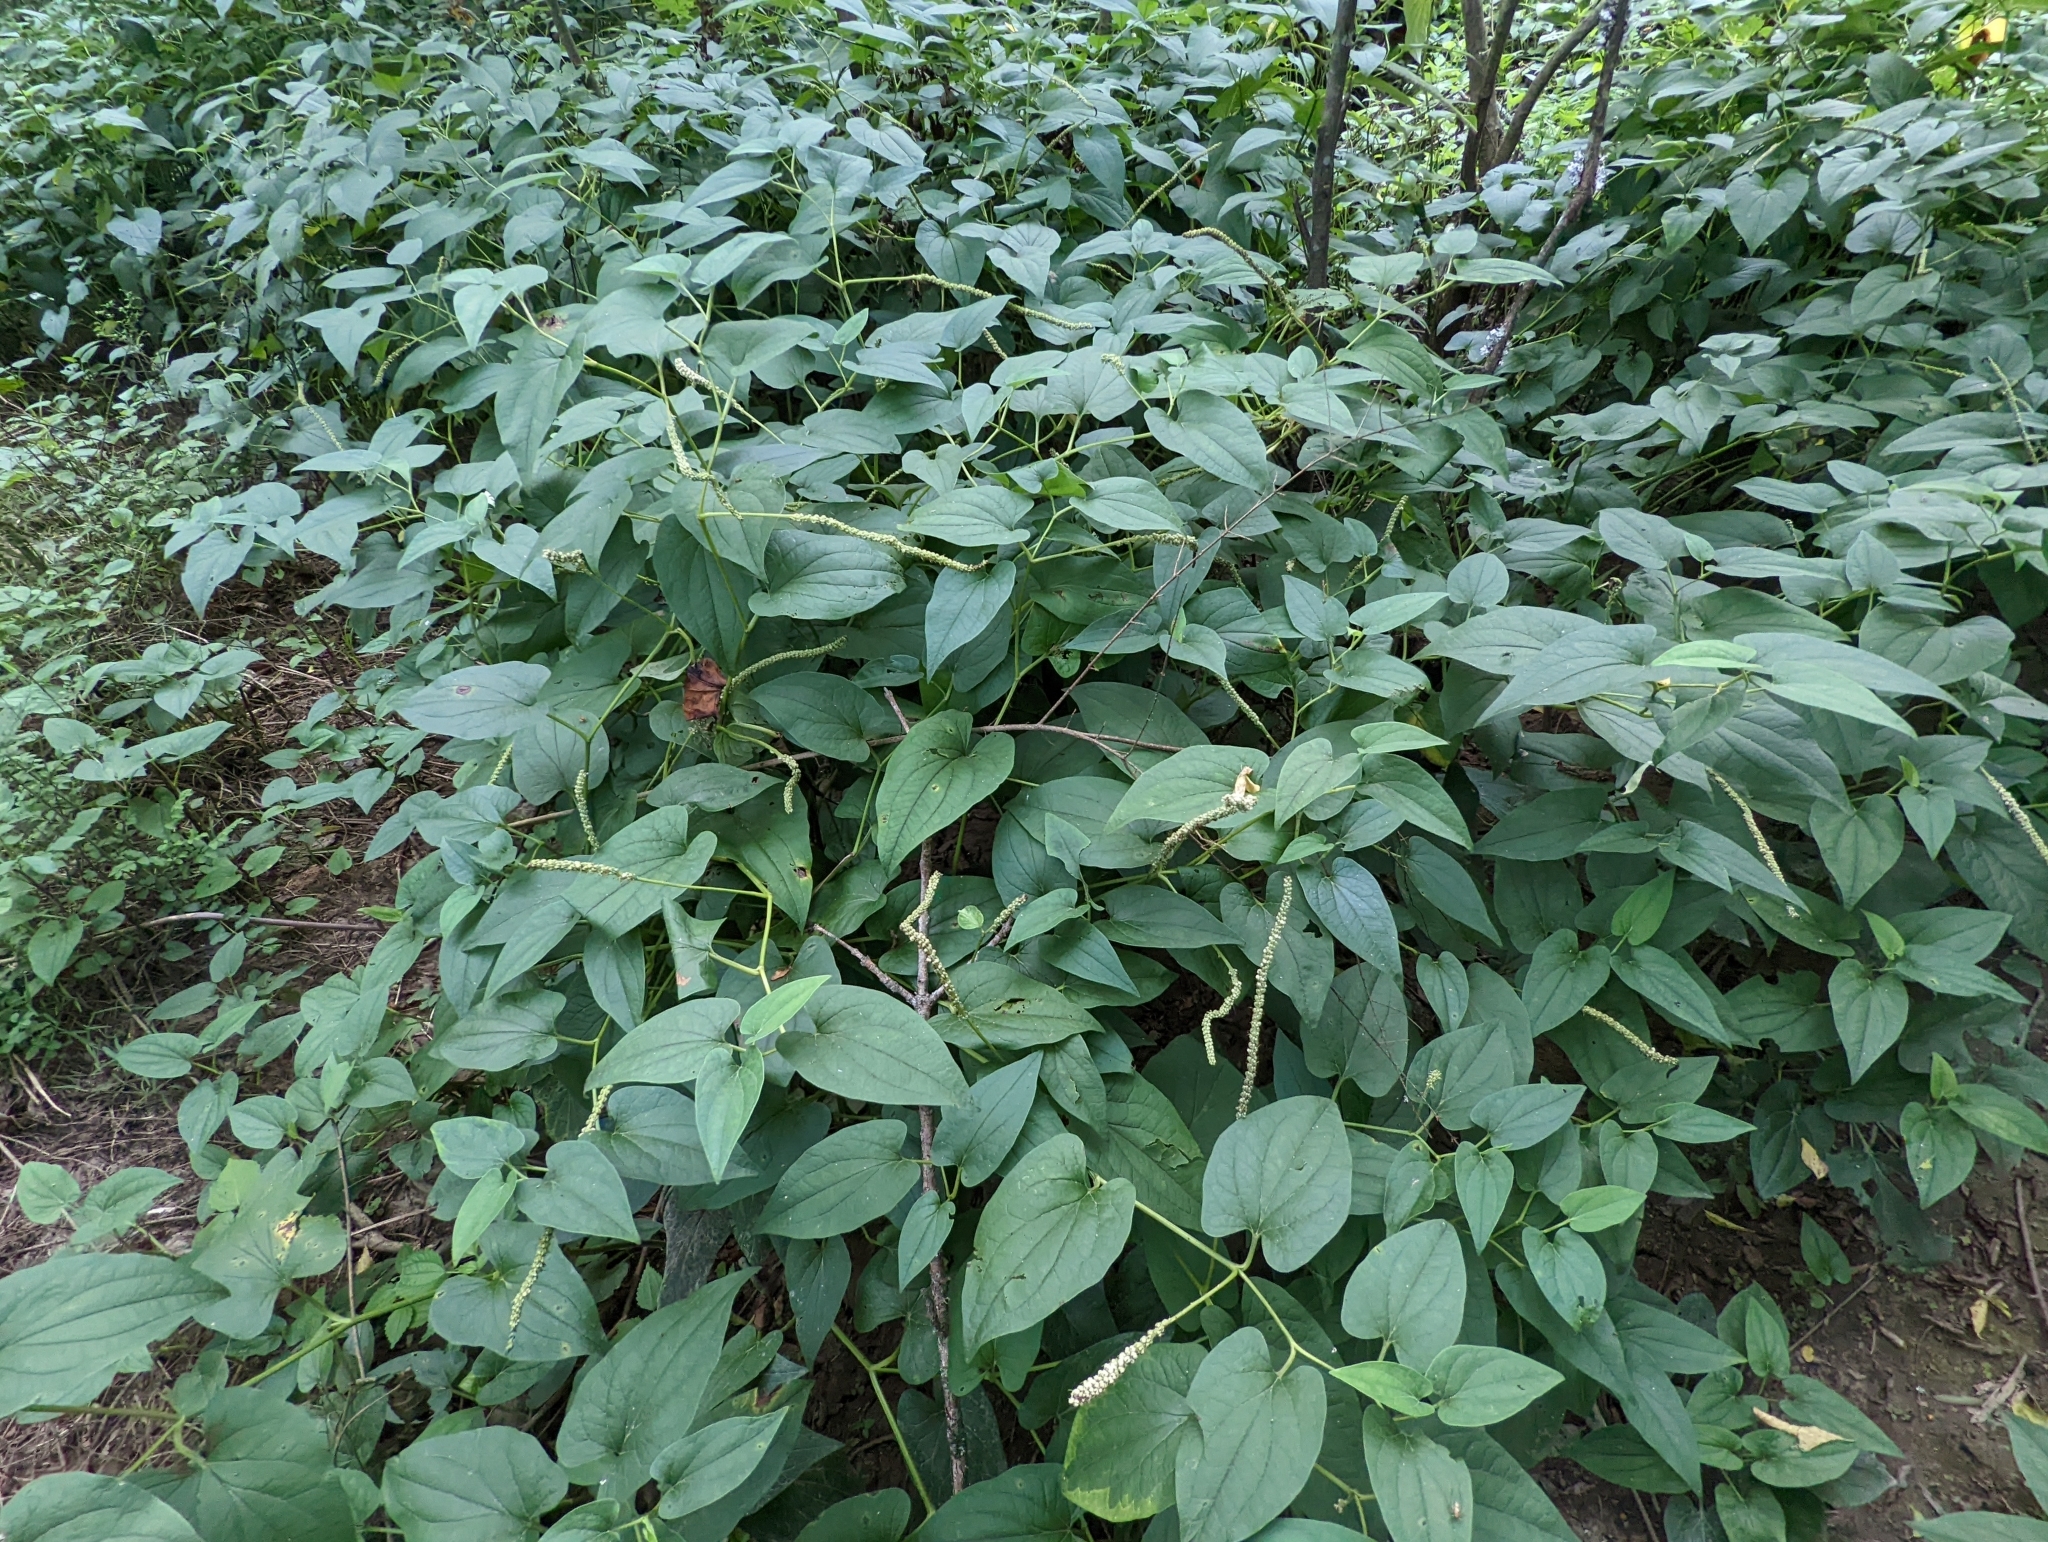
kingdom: Plantae
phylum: Tracheophyta
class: Magnoliopsida
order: Piperales
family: Saururaceae
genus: Saururus
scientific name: Saururus cernuus
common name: Lizard's-tail
